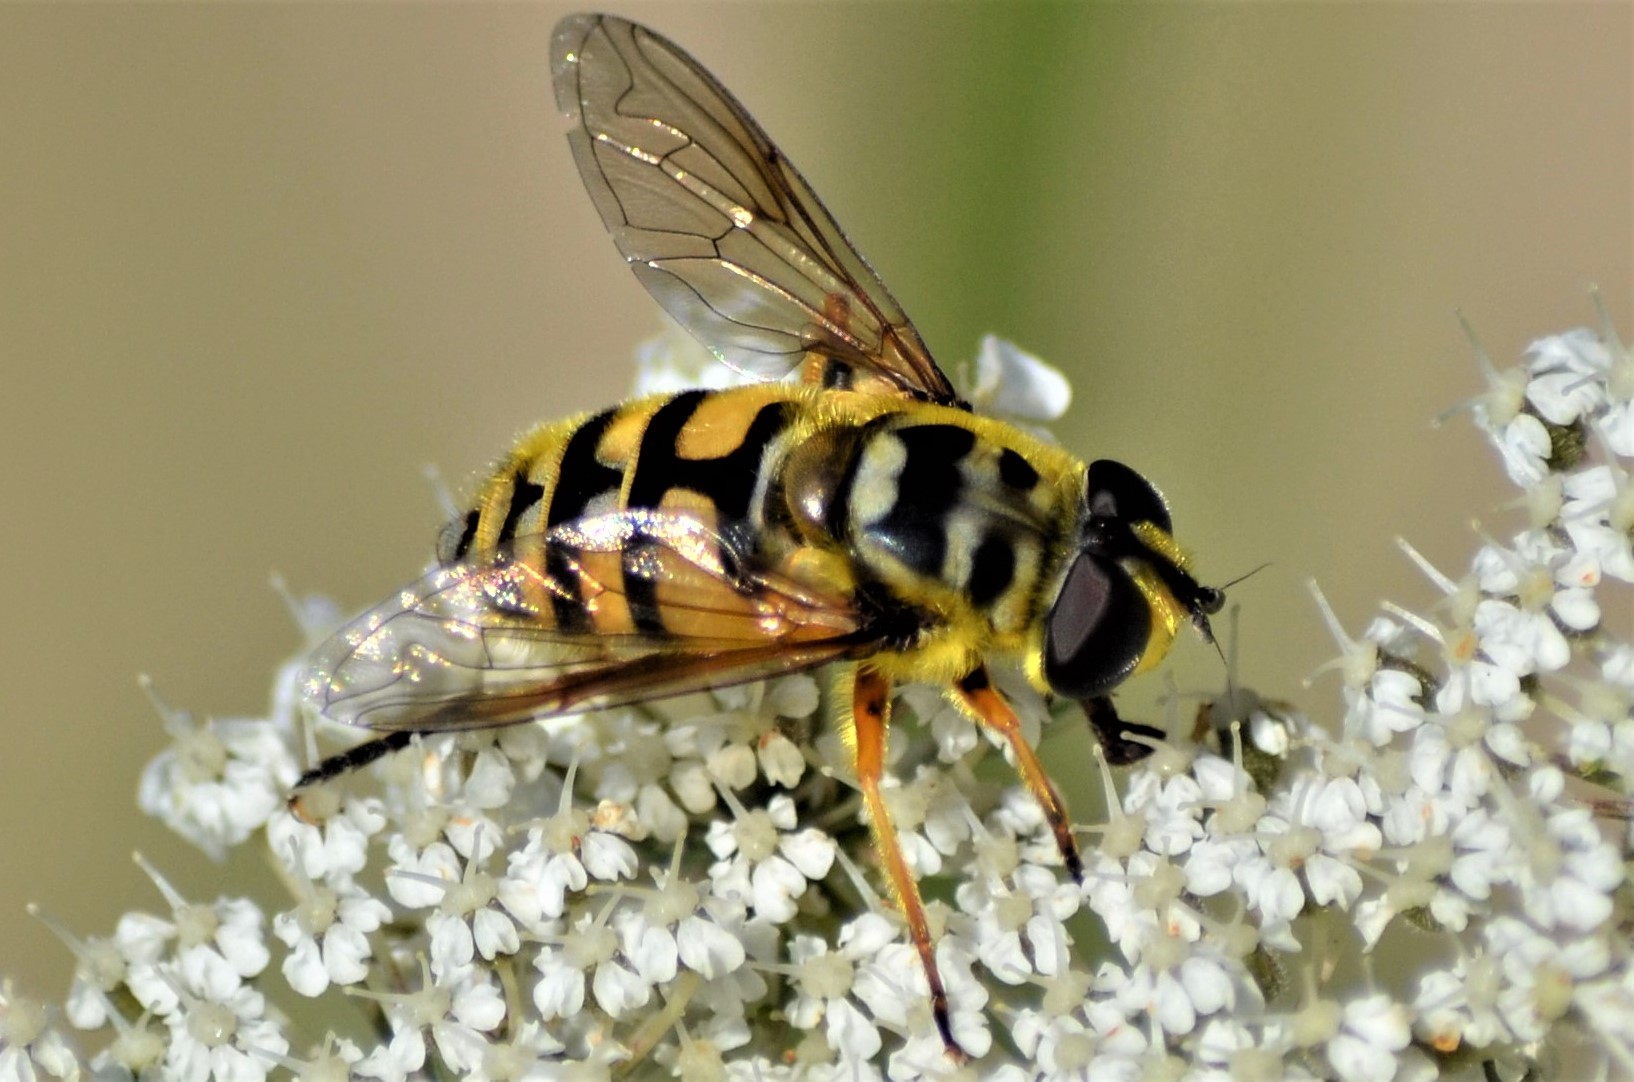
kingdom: Animalia
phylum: Arthropoda
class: Insecta
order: Diptera
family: Syrphidae
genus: Myathropa
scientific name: Myathropa florea
